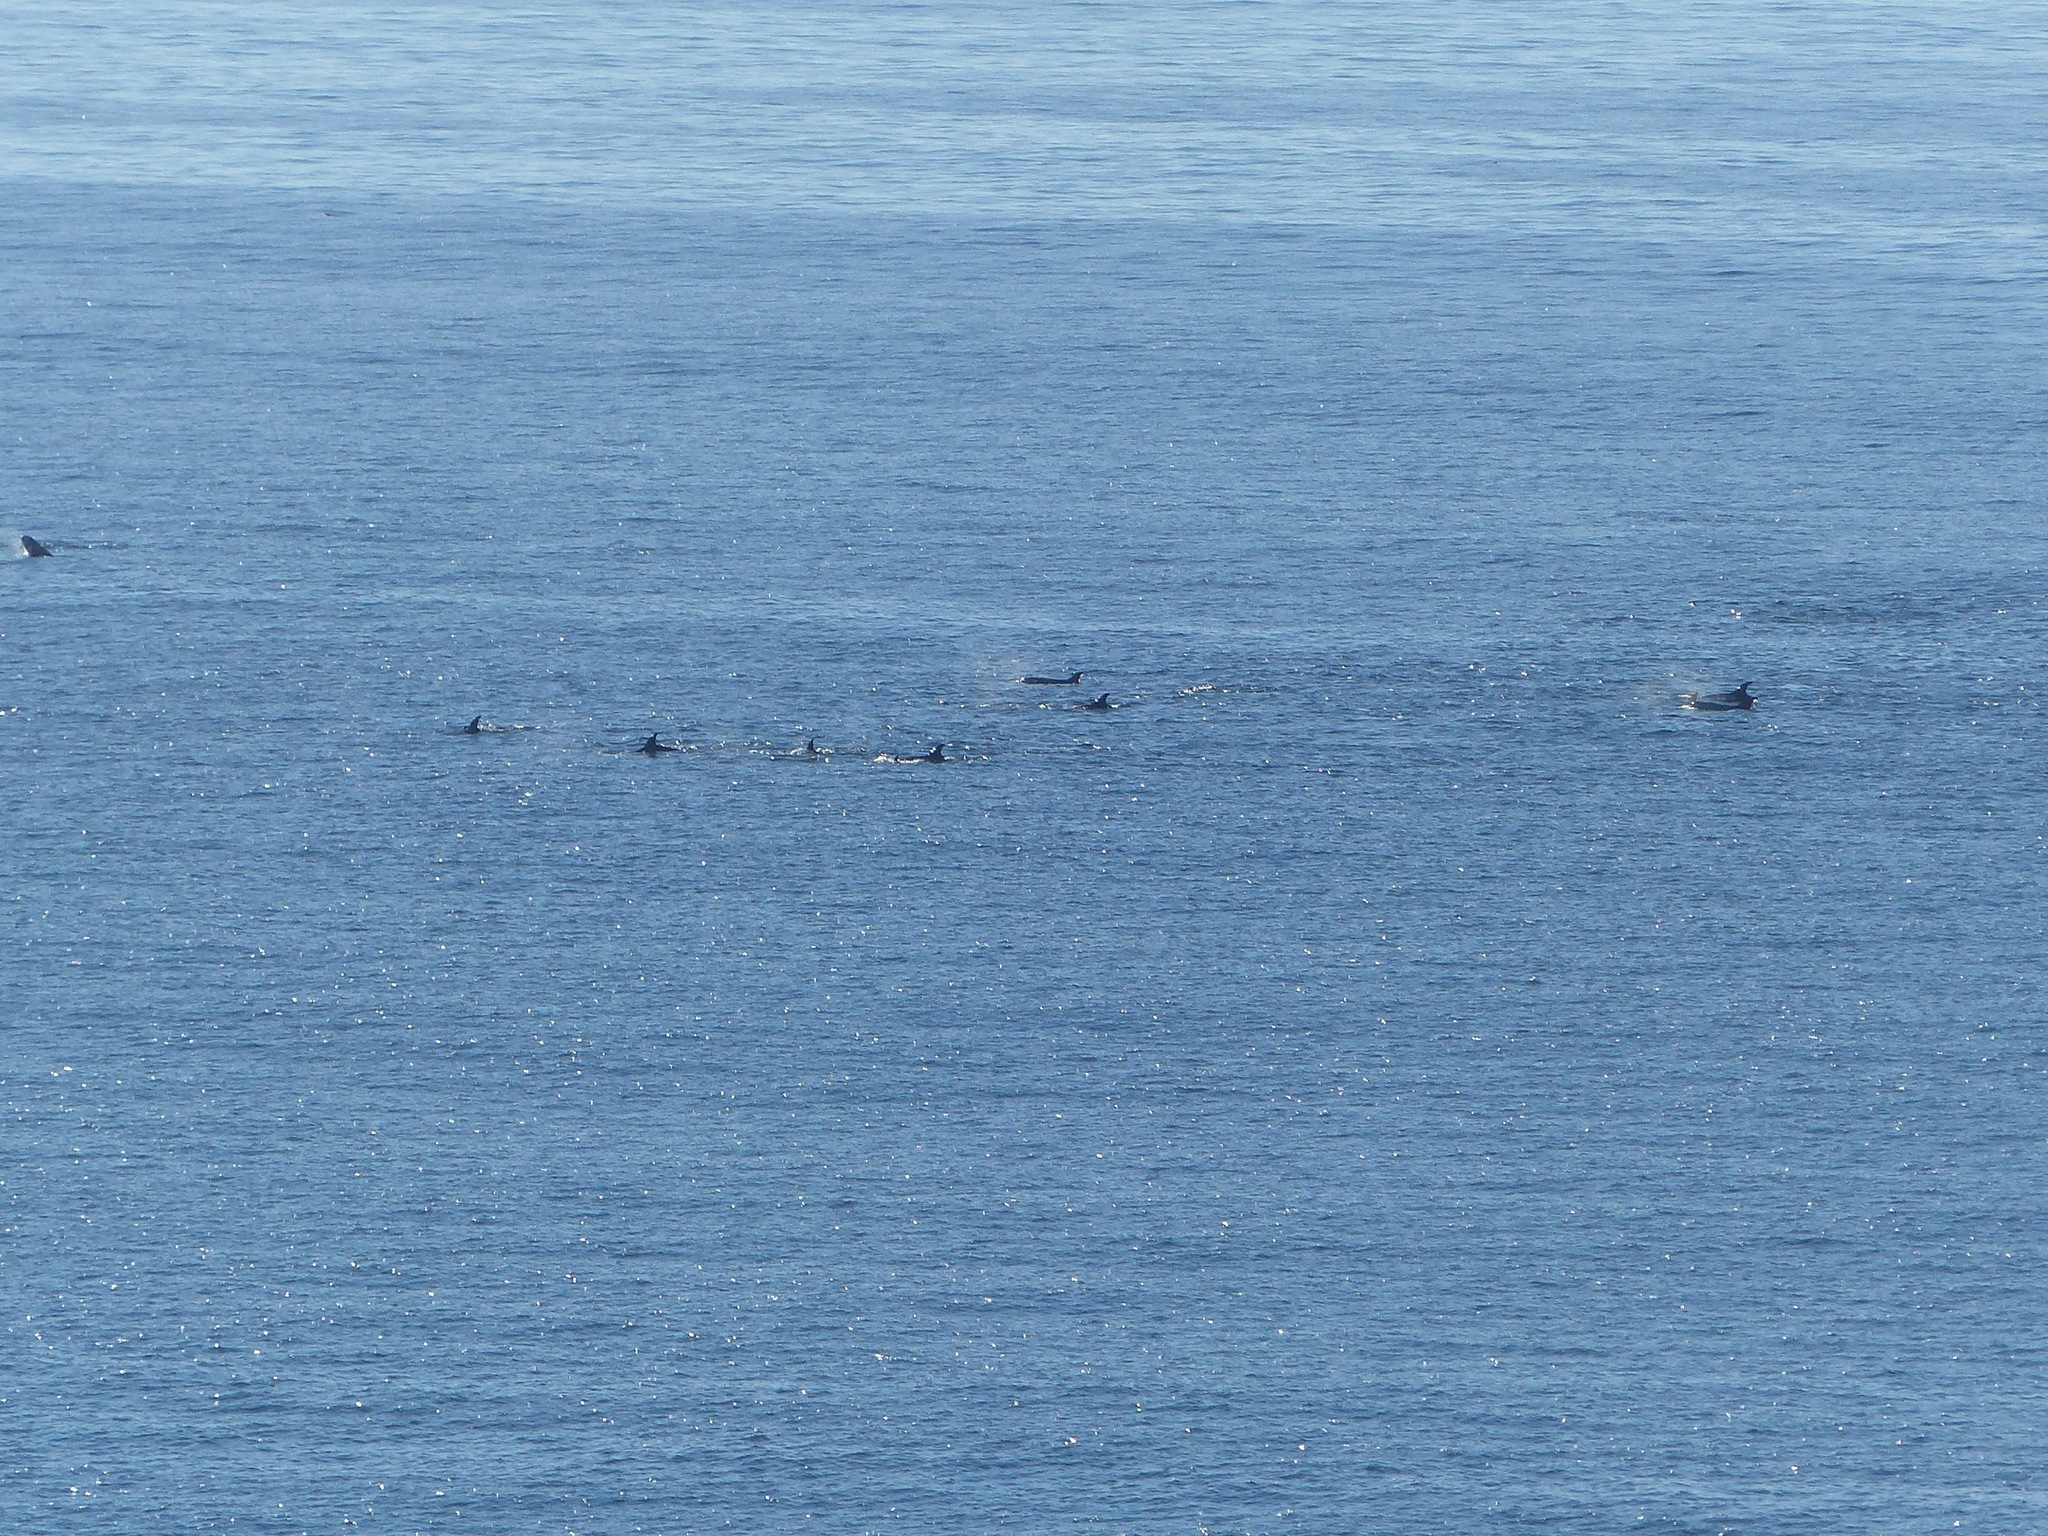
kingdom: Animalia
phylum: Chordata
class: Mammalia
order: Cetacea
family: Delphinidae
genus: Grampus
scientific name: Grampus griseus
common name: Risso's dolphin
